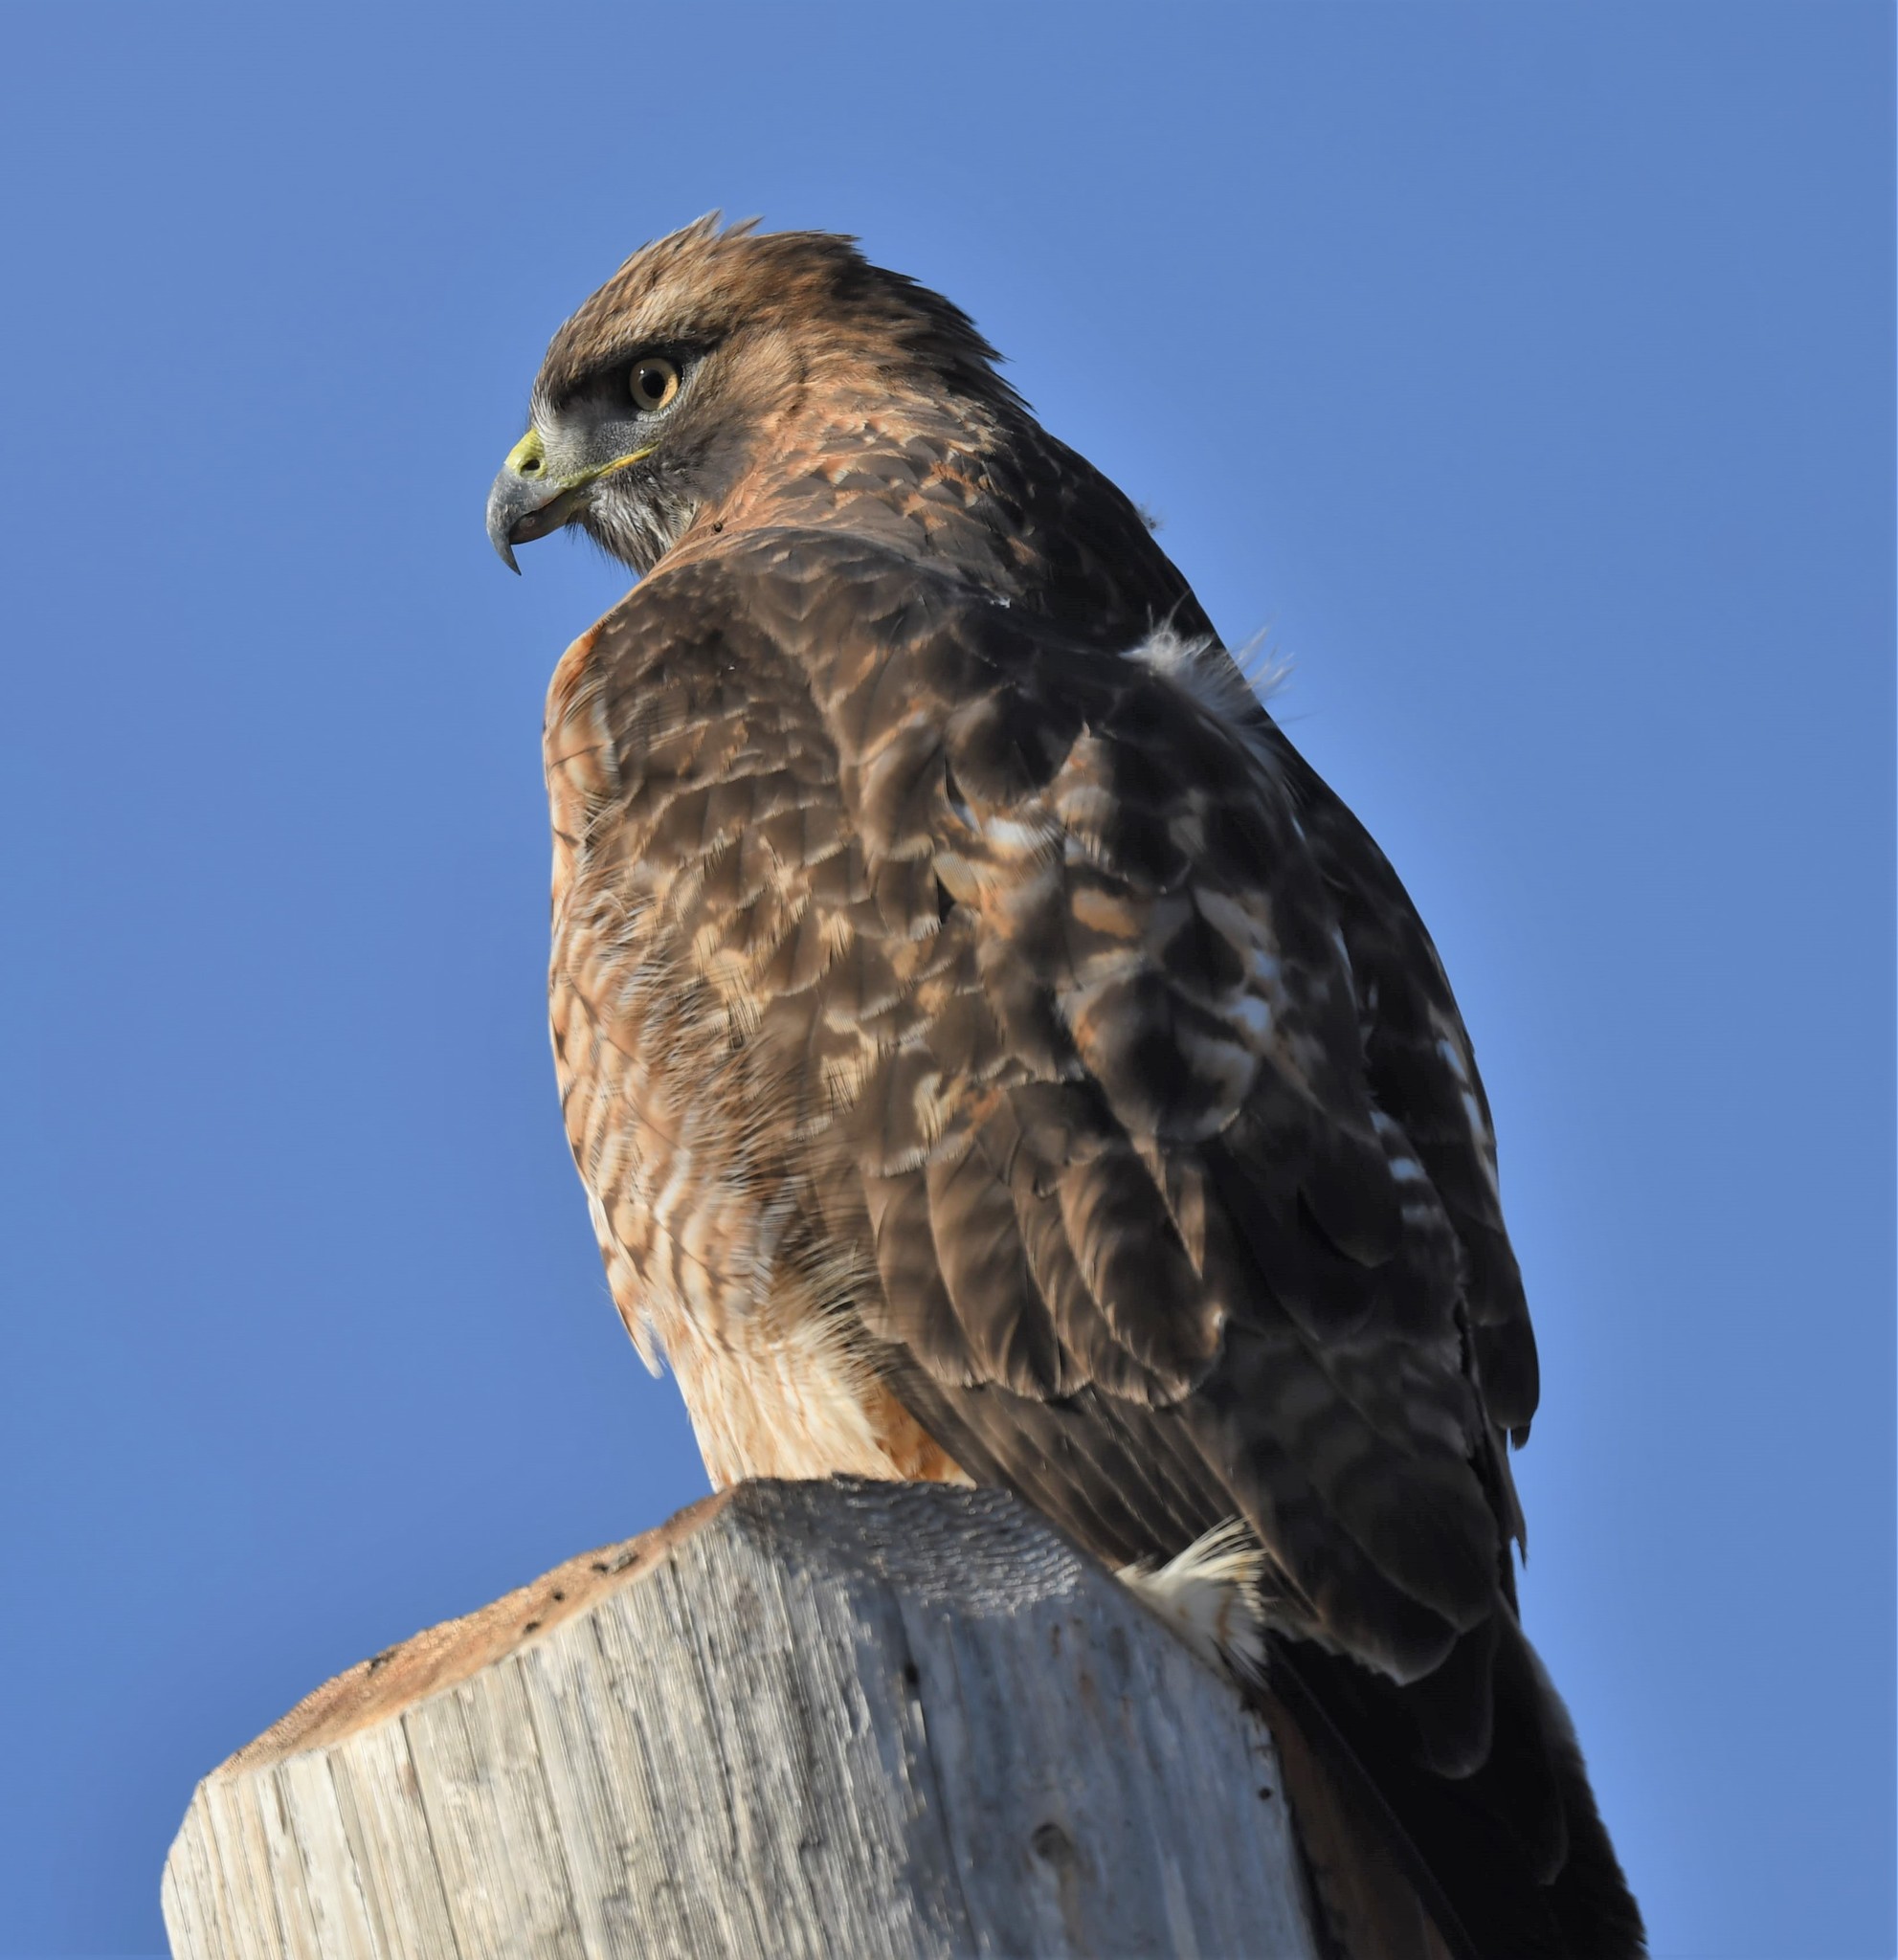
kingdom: Animalia
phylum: Chordata
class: Aves
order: Accipitriformes
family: Accipitridae
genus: Buteo
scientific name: Buteo jamaicensis
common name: Red-tailed hawk
